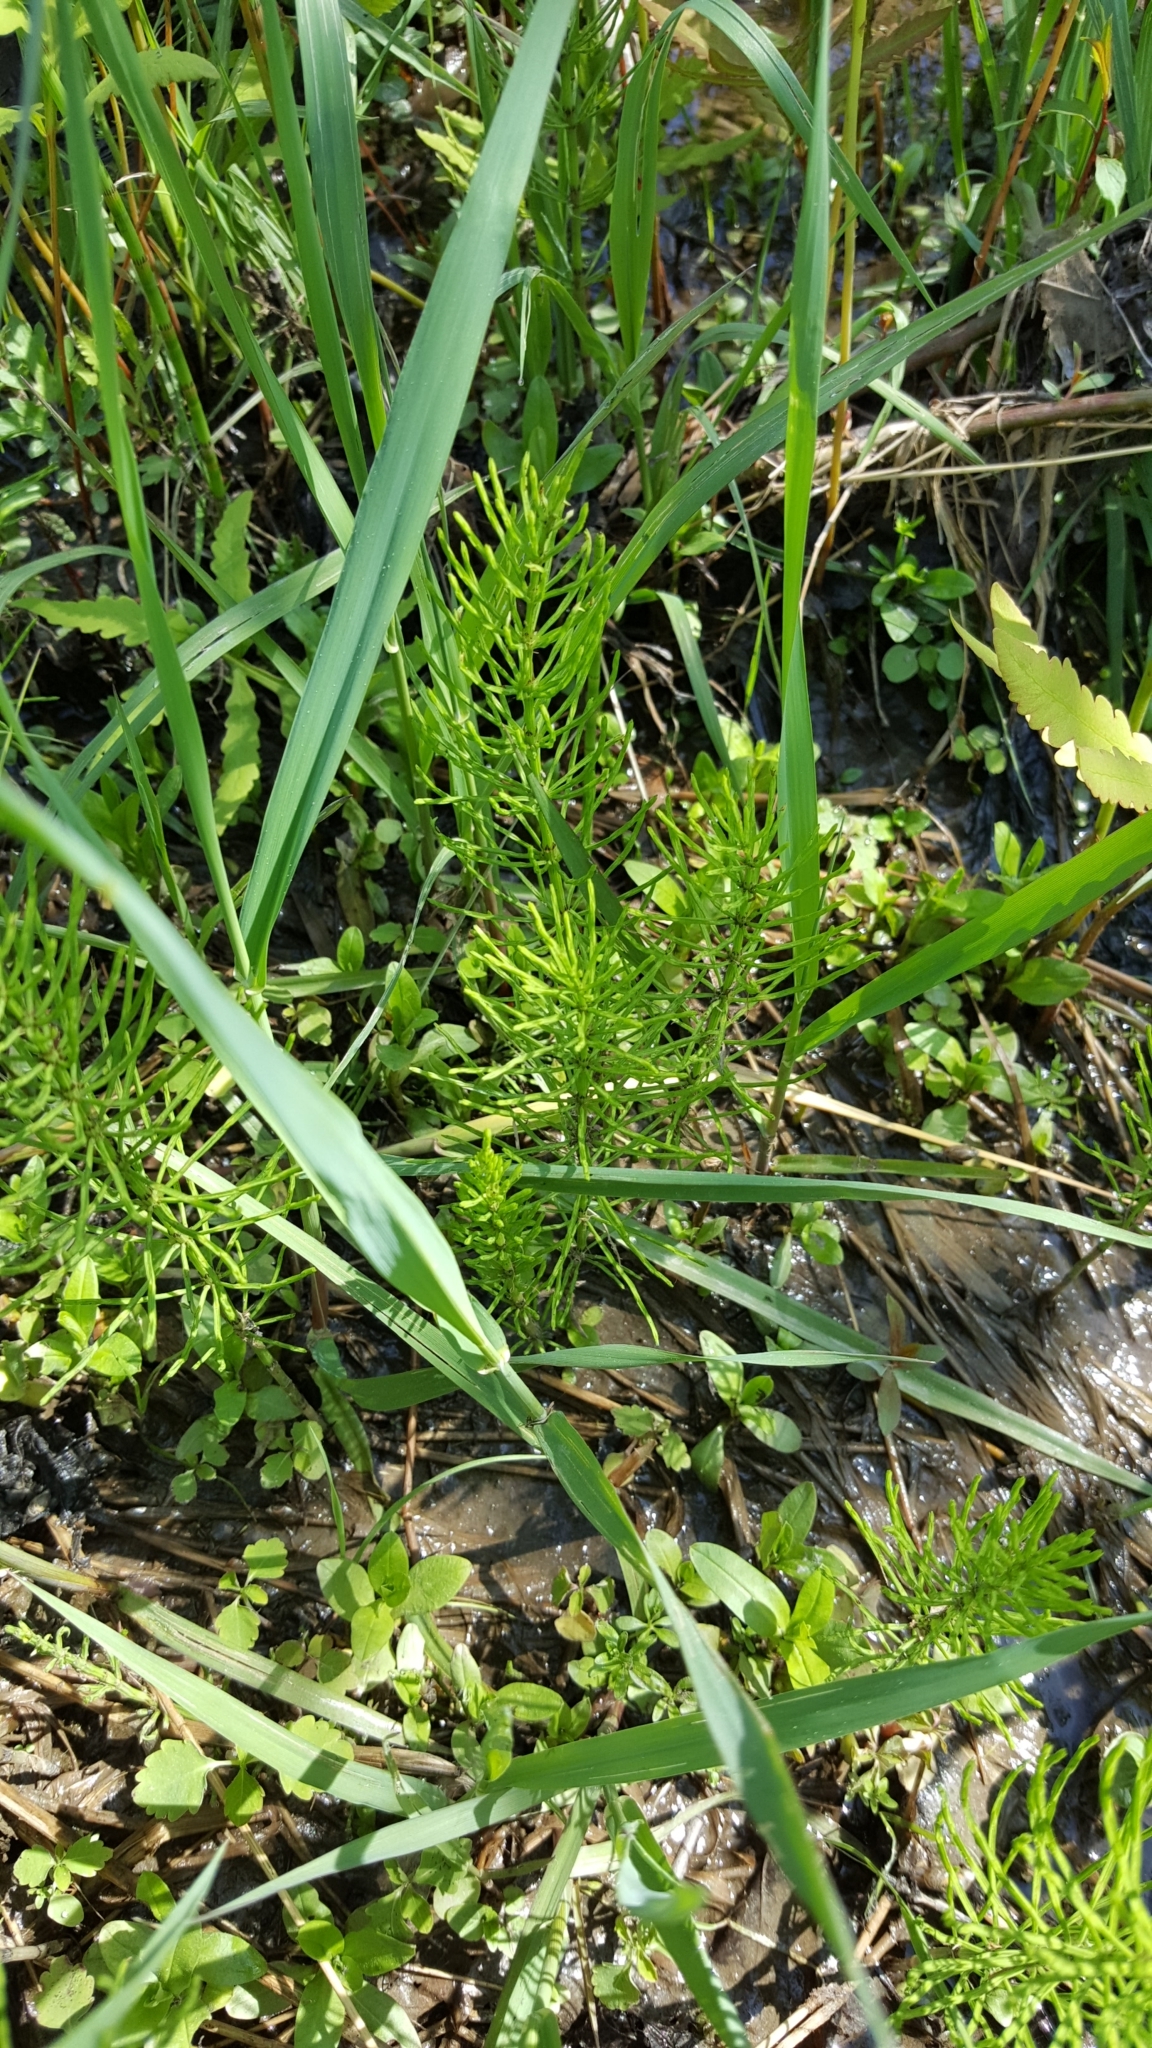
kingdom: Plantae
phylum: Tracheophyta
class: Polypodiopsida
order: Equisetales
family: Equisetaceae
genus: Equisetum
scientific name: Equisetum arvense
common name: Field horsetail
